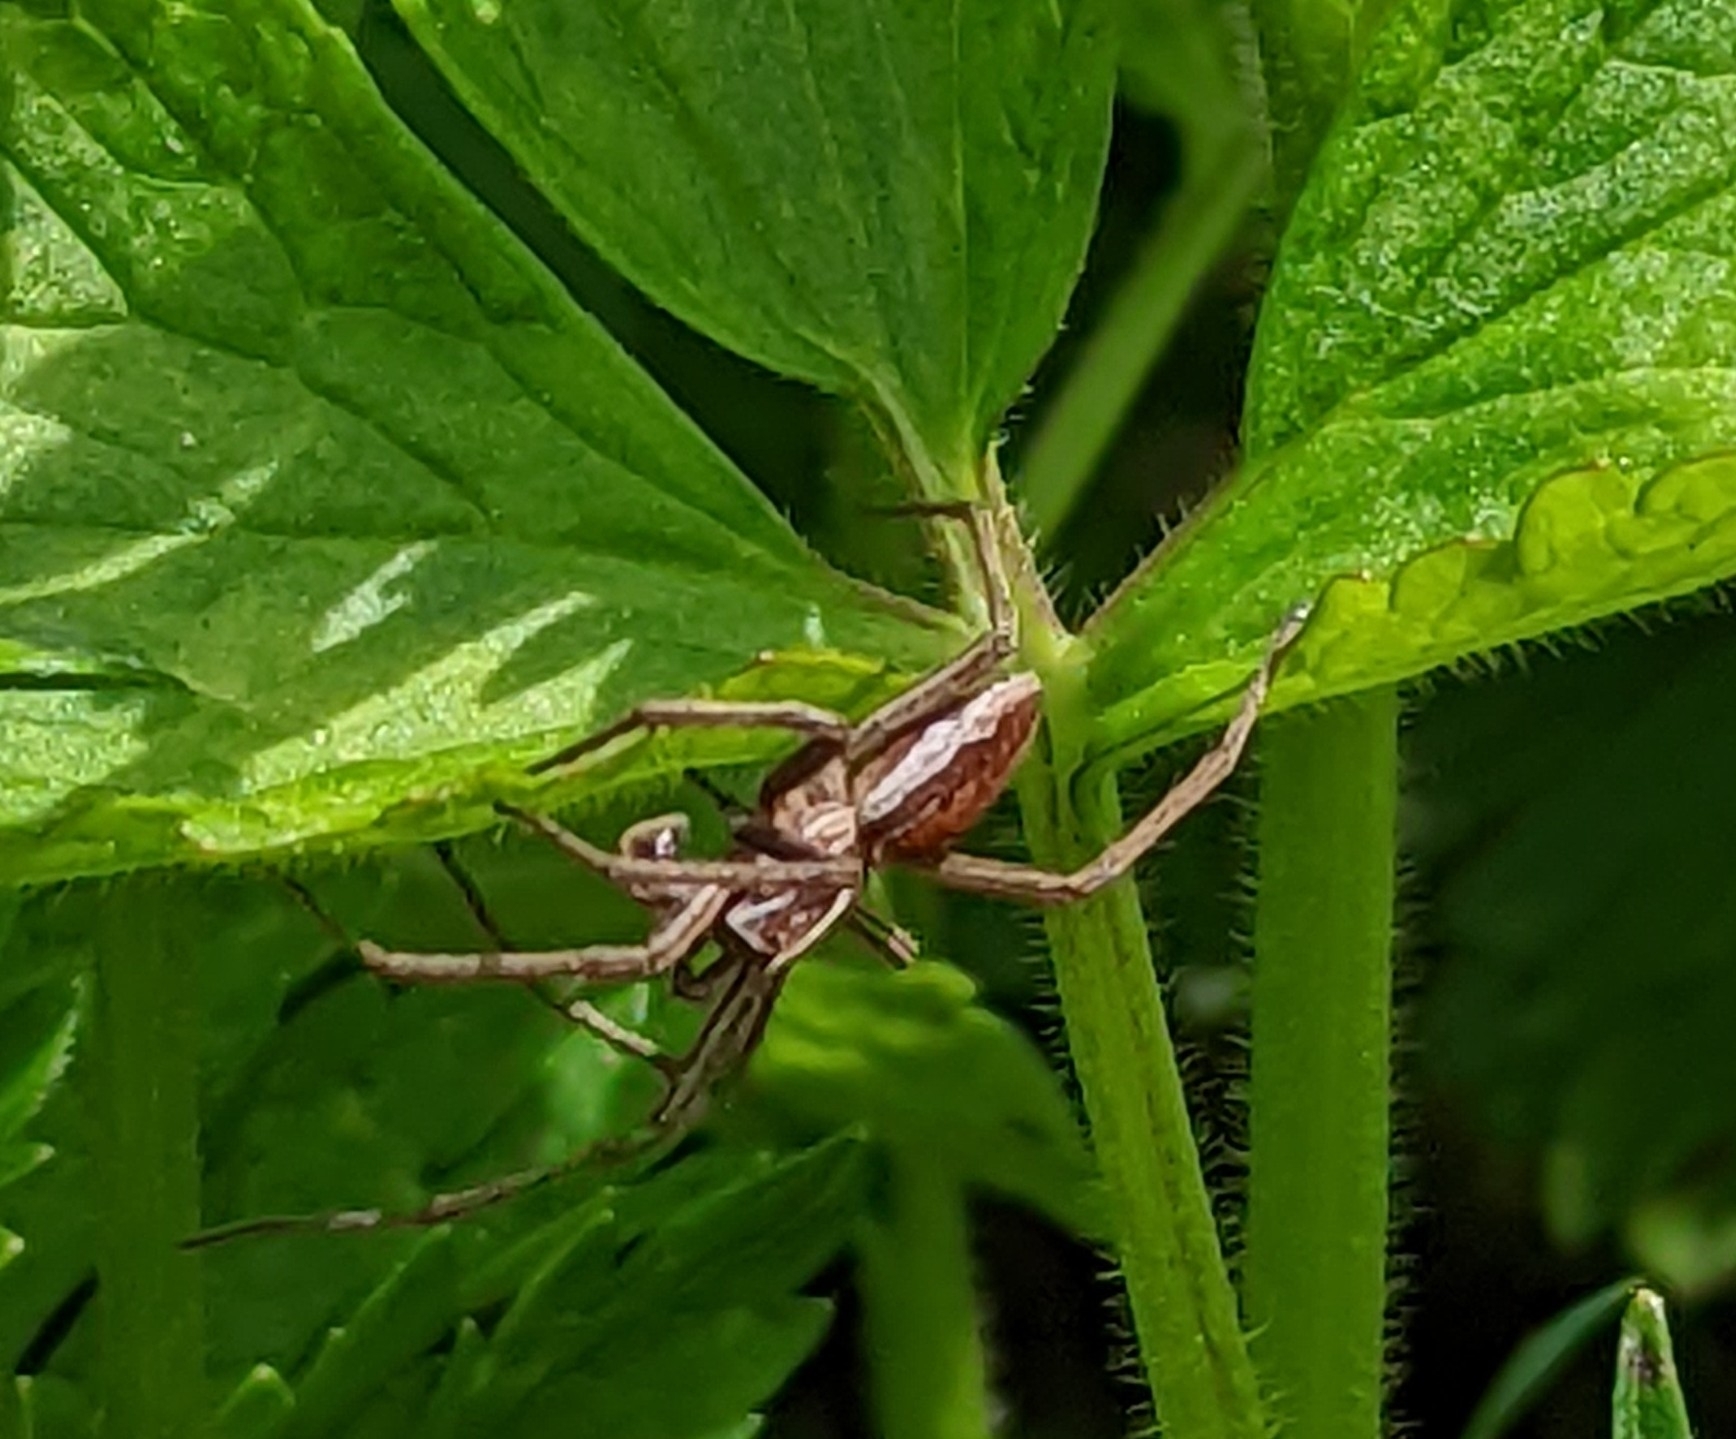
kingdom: Animalia
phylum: Arthropoda
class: Arachnida
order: Araneae
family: Pisauridae
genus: Pisaura
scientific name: Pisaura mirabilis
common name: Tent spider
